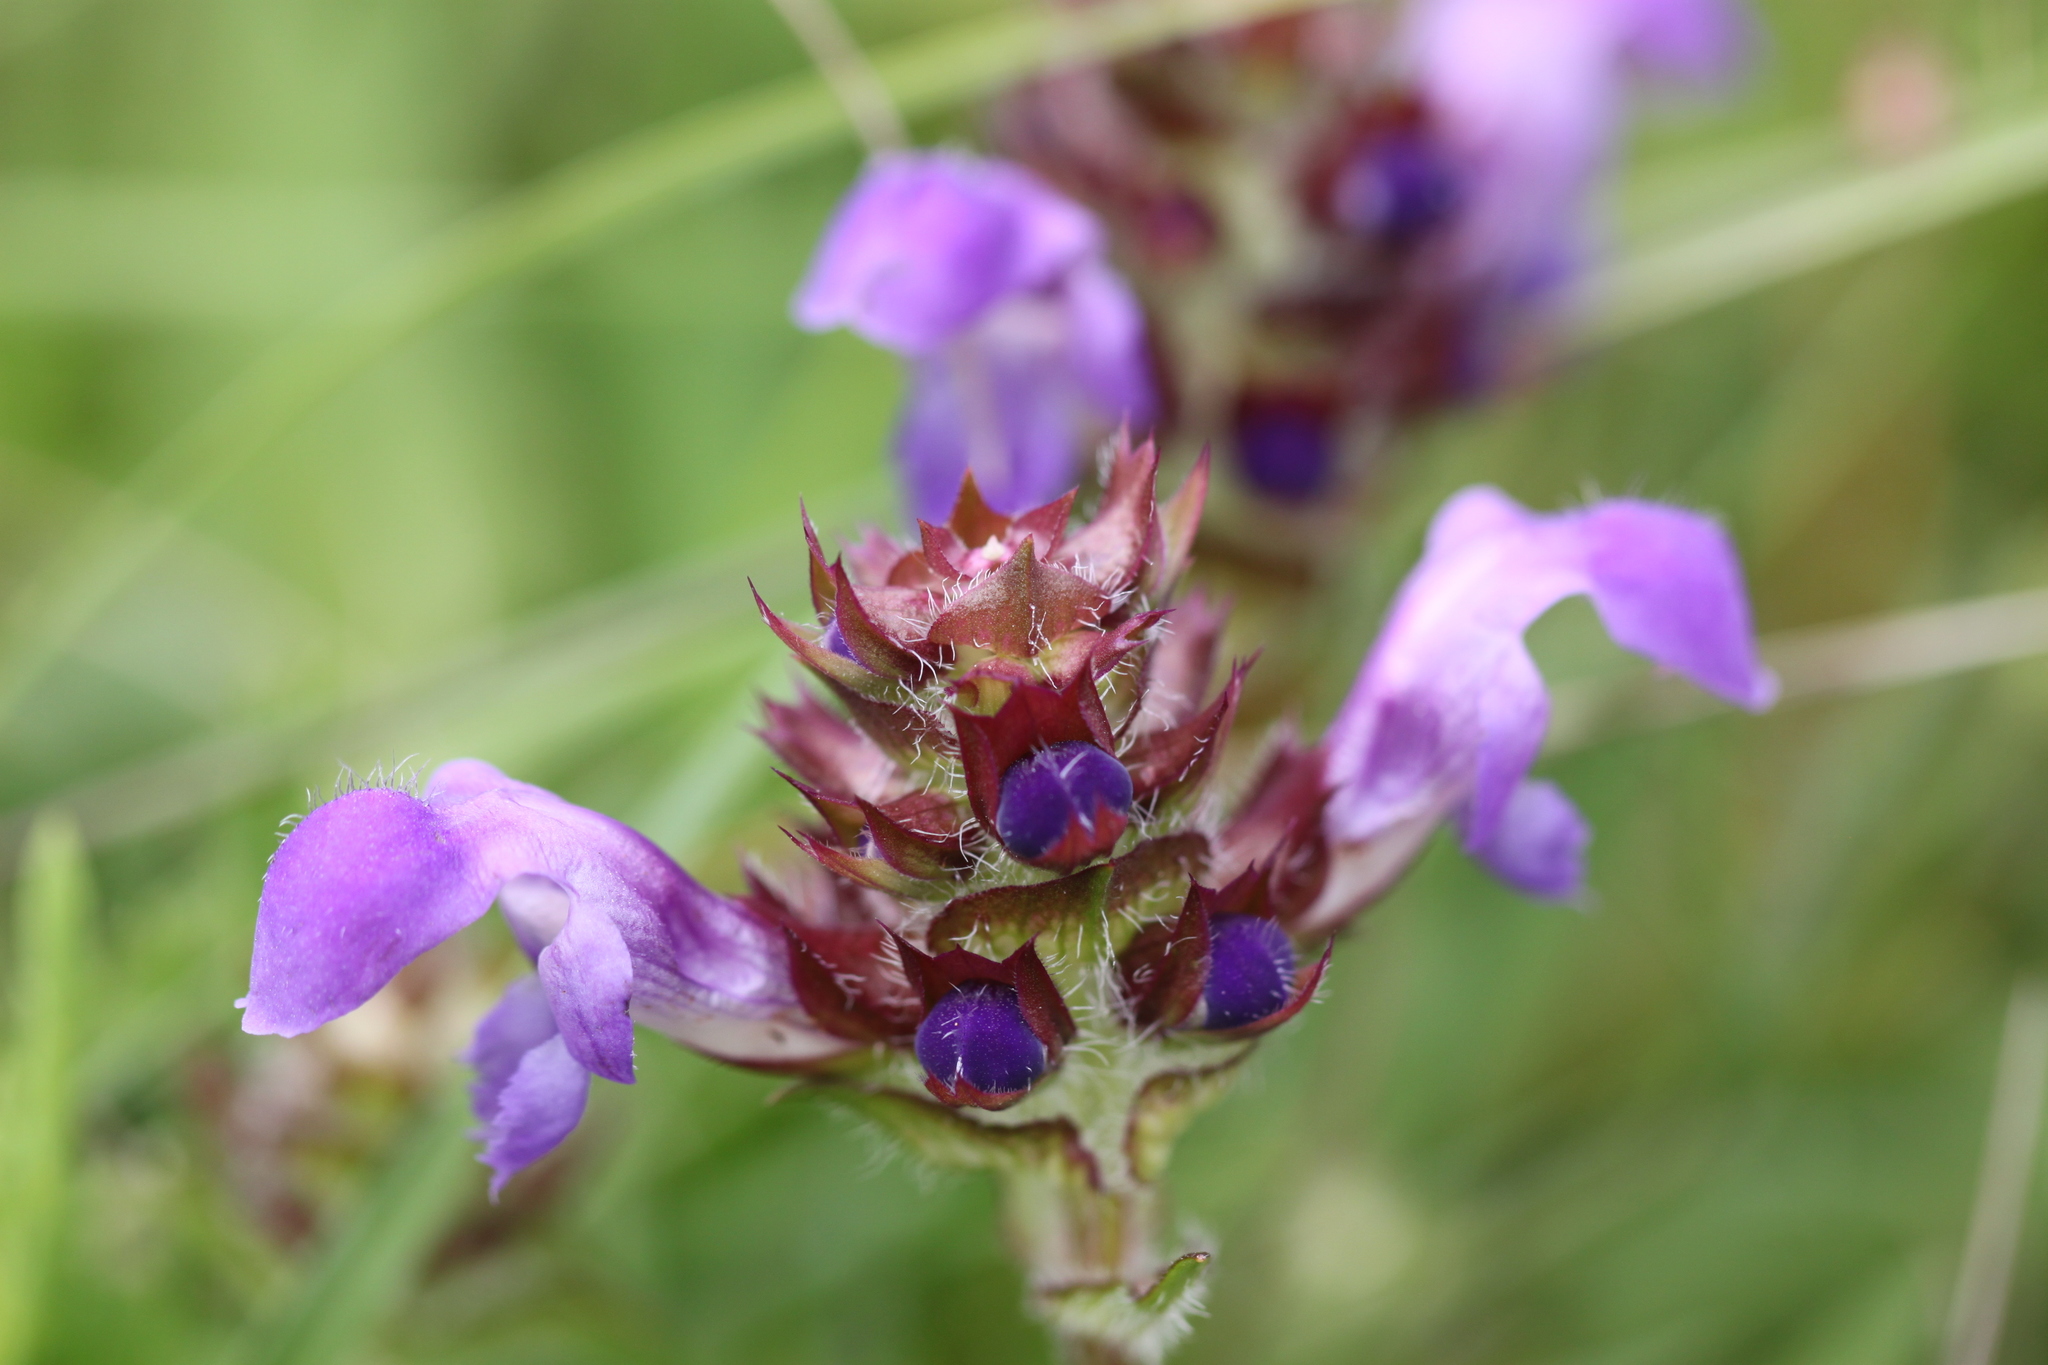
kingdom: Plantae
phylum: Tracheophyta
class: Magnoliopsida
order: Lamiales
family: Lamiaceae
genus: Prunella
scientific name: Prunella grandiflora
